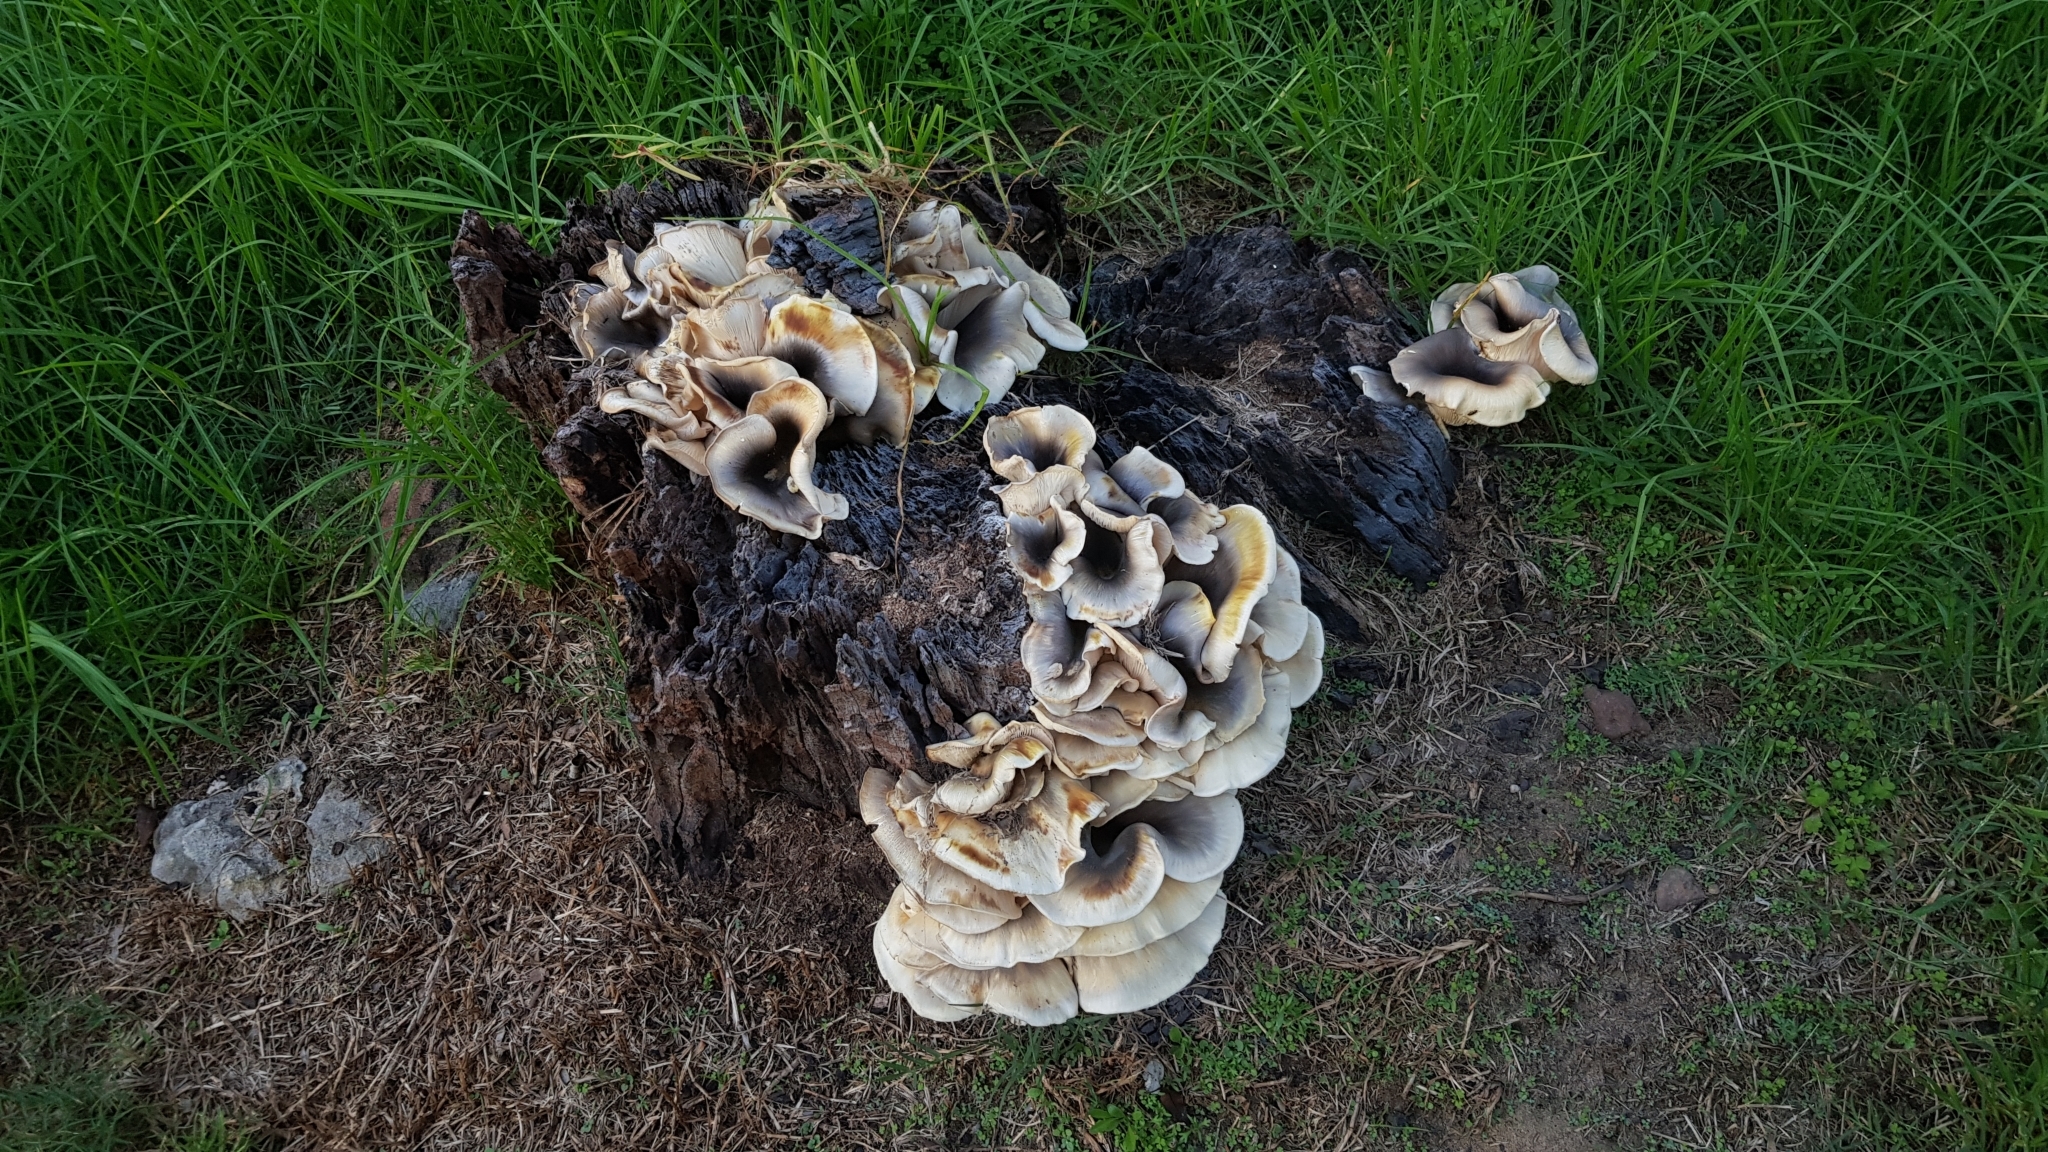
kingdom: Fungi
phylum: Basidiomycota
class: Agaricomycetes
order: Agaricales
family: Omphalotaceae
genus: Omphalotus
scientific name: Omphalotus nidiformis
